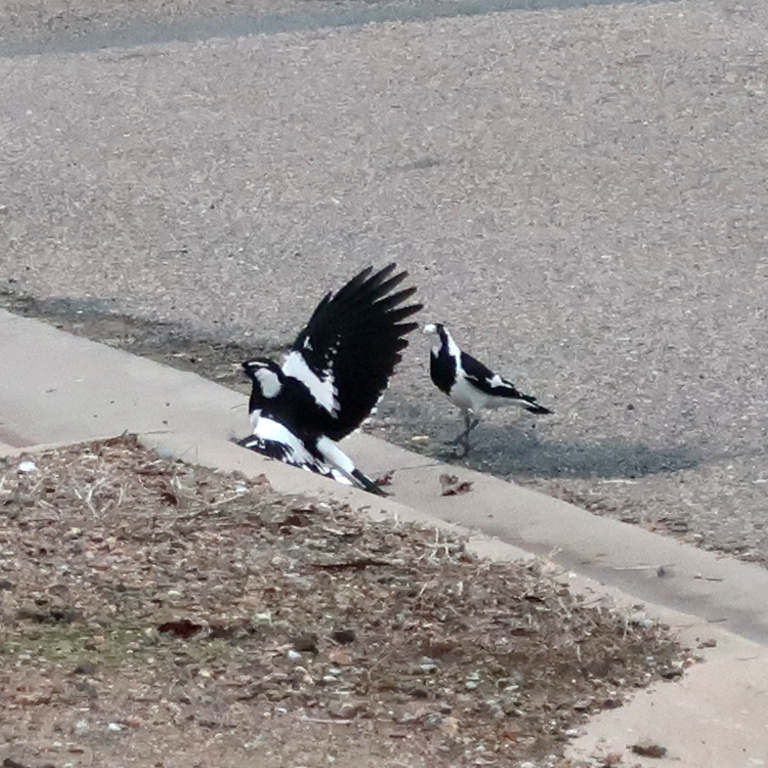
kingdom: Animalia
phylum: Chordata
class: Aves
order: Passeriformes
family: Monarchidae
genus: Grallina
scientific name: Grallina cyanoleuca
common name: Magpie-lark
